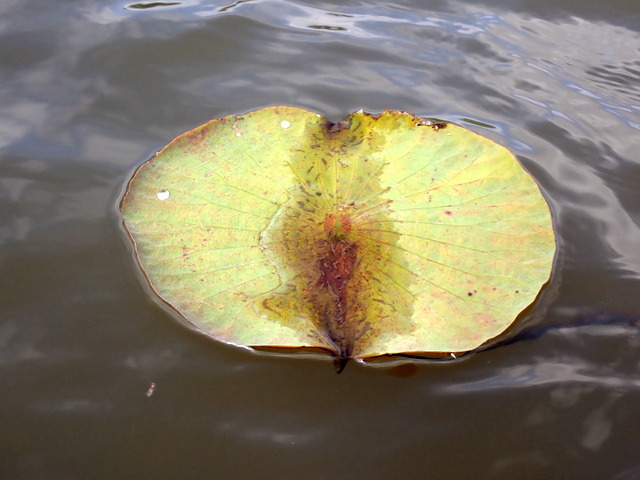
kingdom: Plantae
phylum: Tracheophyta
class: Magnoliopsida
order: Proteales
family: Nelumbonaceae
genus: Nelumbo
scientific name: Nelumbo lutea
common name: American lotus
